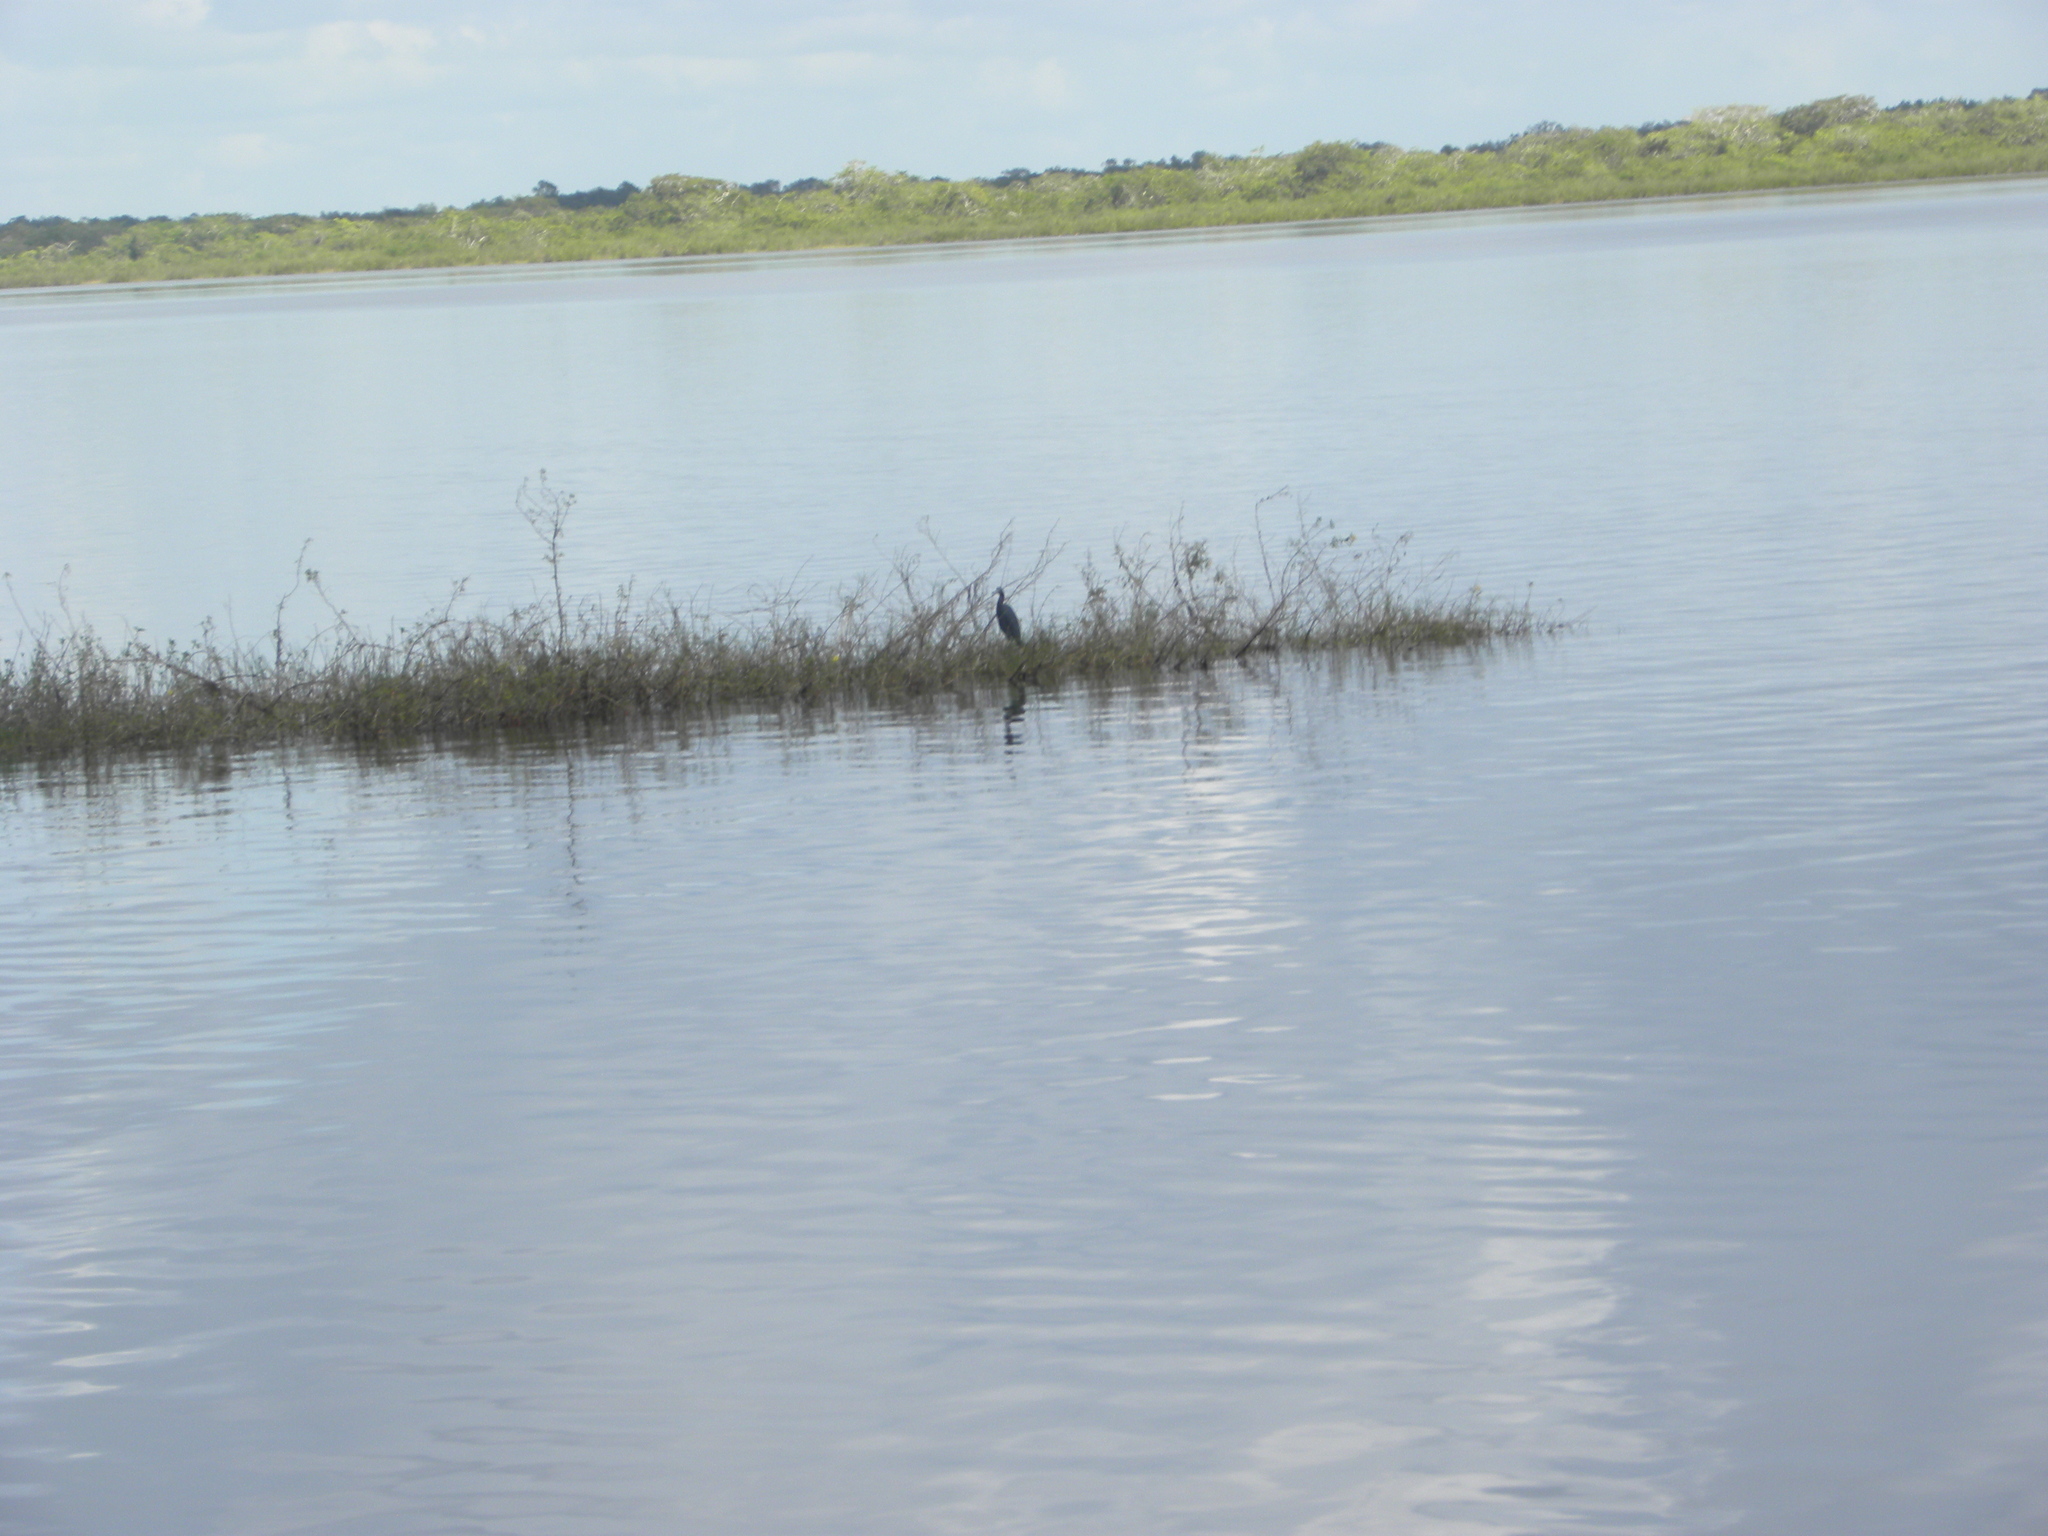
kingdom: Animalia
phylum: Chordata
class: Aves
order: Pelecaniformes
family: Ardeidae
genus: Egretta
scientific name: Egretta caerulea
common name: Little blue heron
